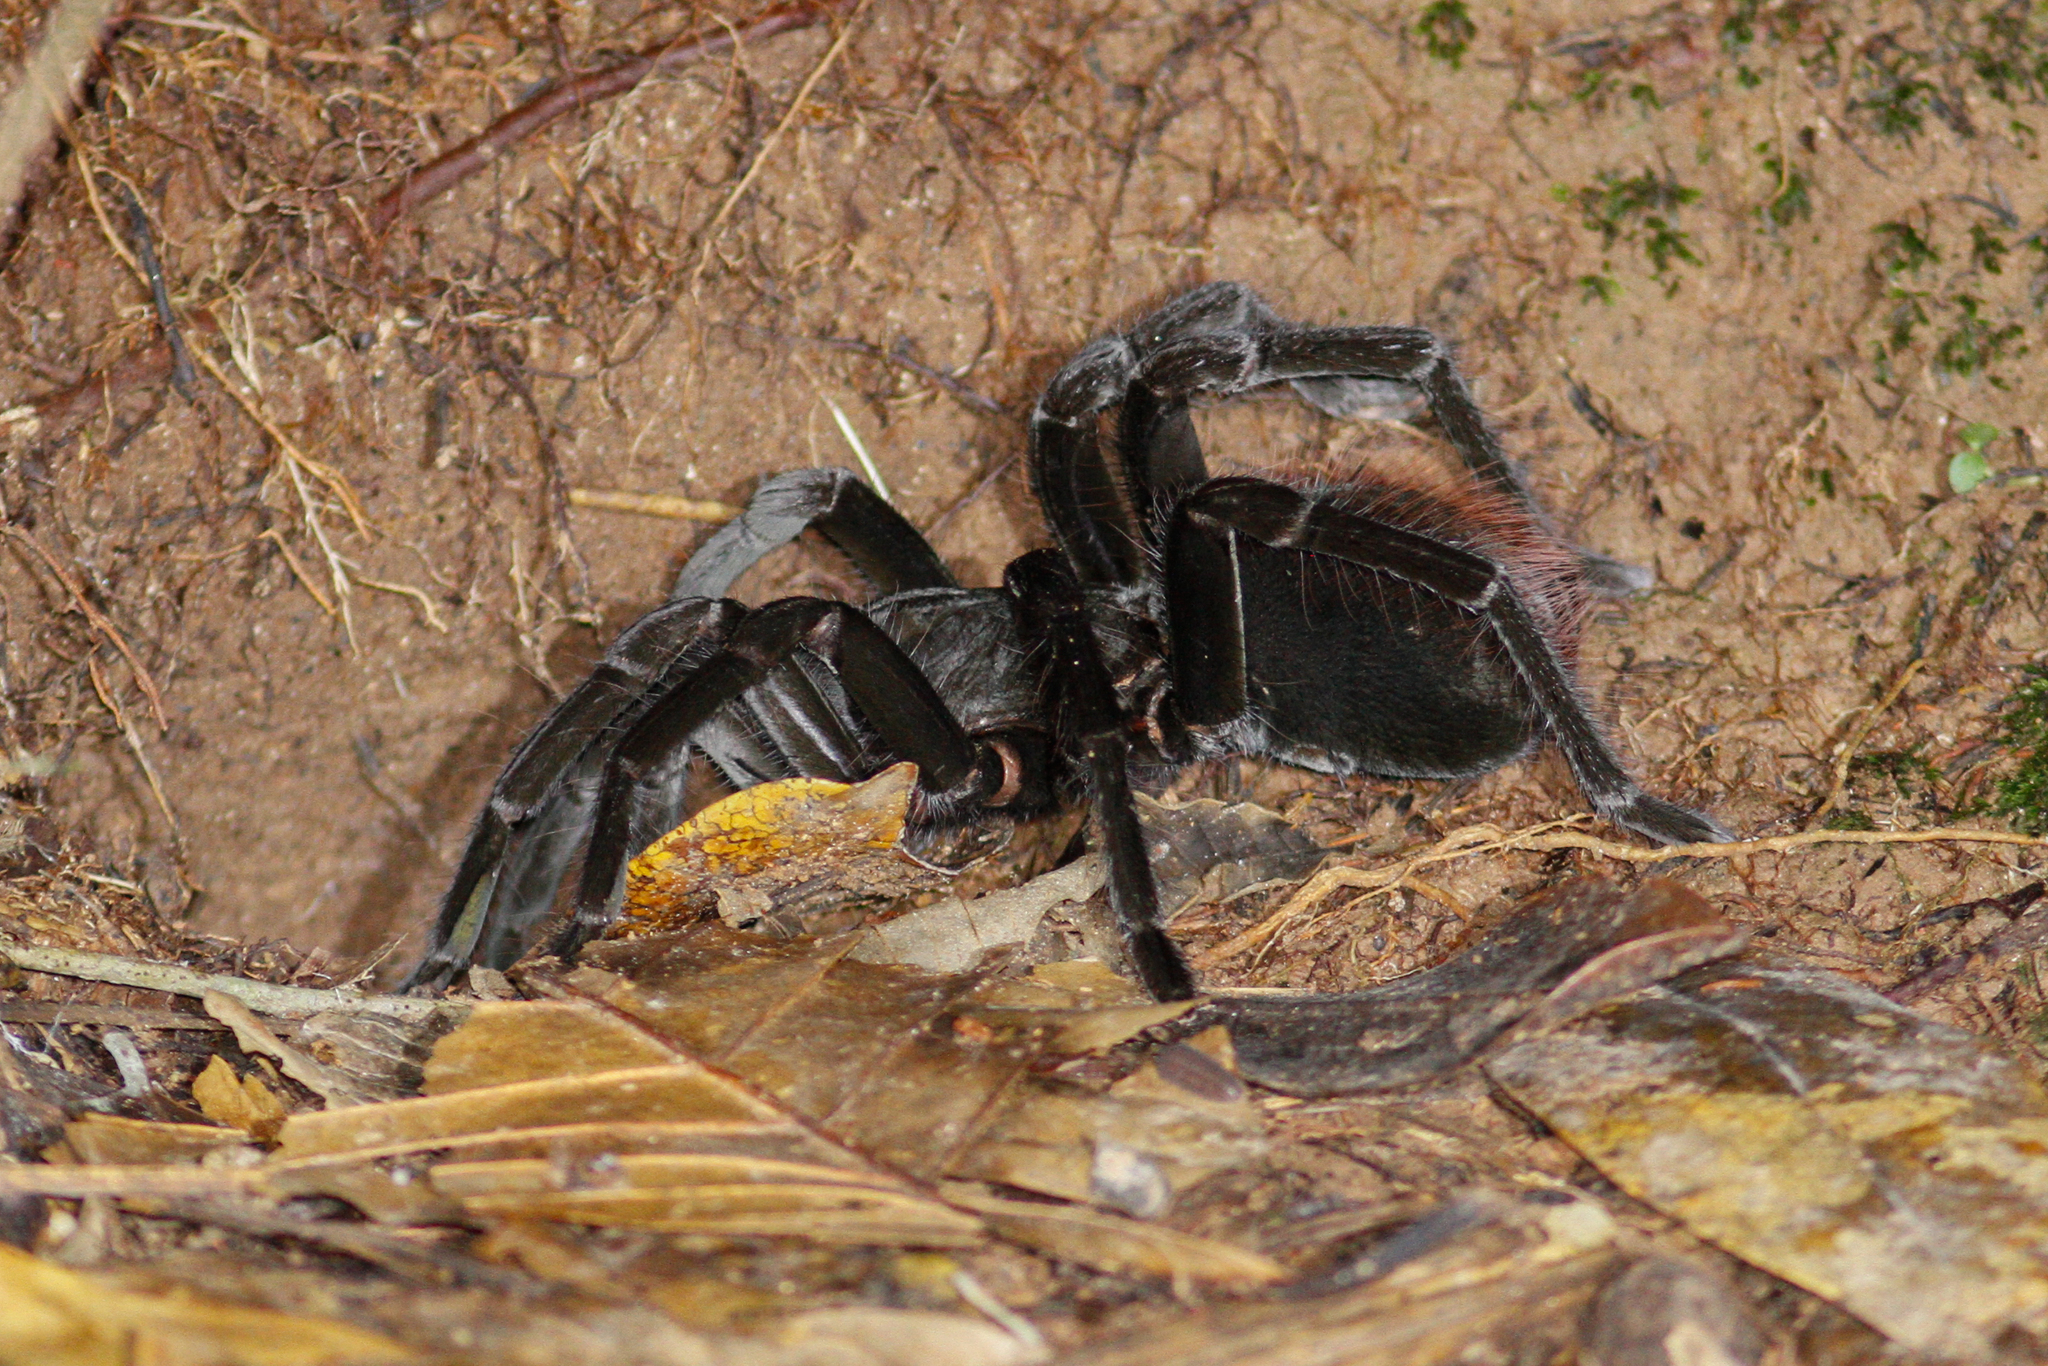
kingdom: Animalia
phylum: Arthropoda
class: Arachnida
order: Araneae
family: Theraphosidae
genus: Megaphobema
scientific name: Megaphobema velvetosoma
